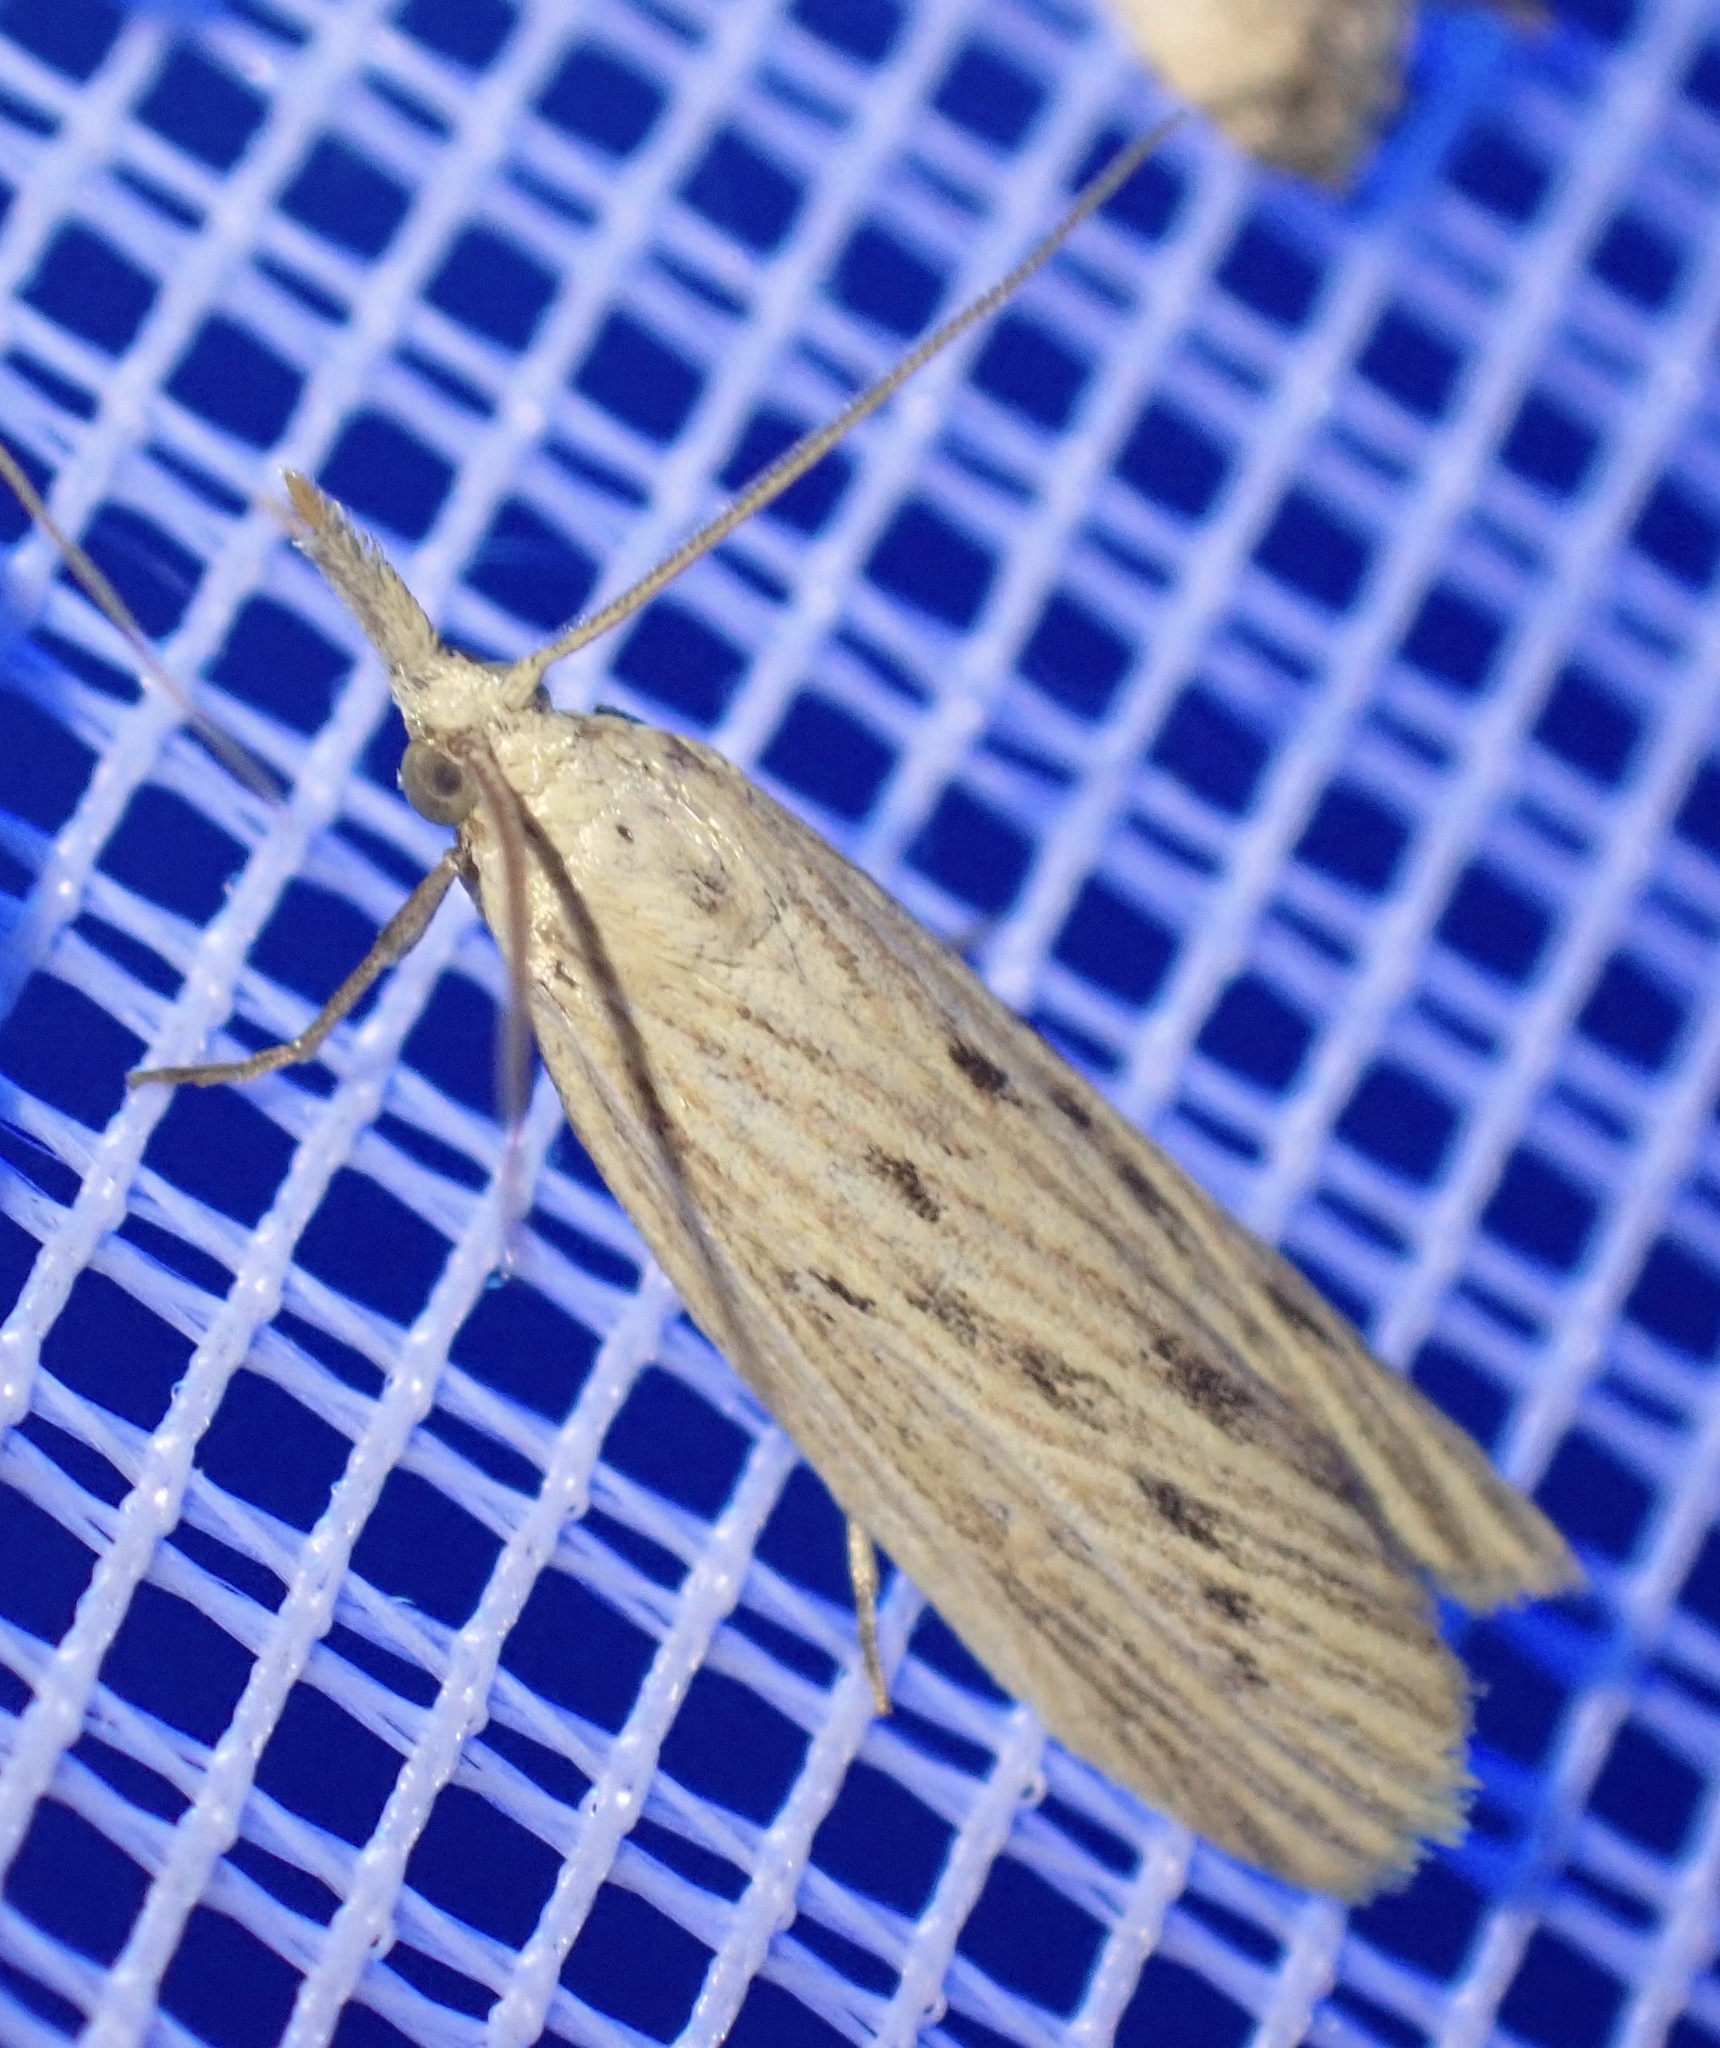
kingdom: Animalia
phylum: Arthropoda
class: Insecta
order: Lepidoptera
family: Pyralidae
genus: Ematheudes
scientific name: Ematheudes punctellus
